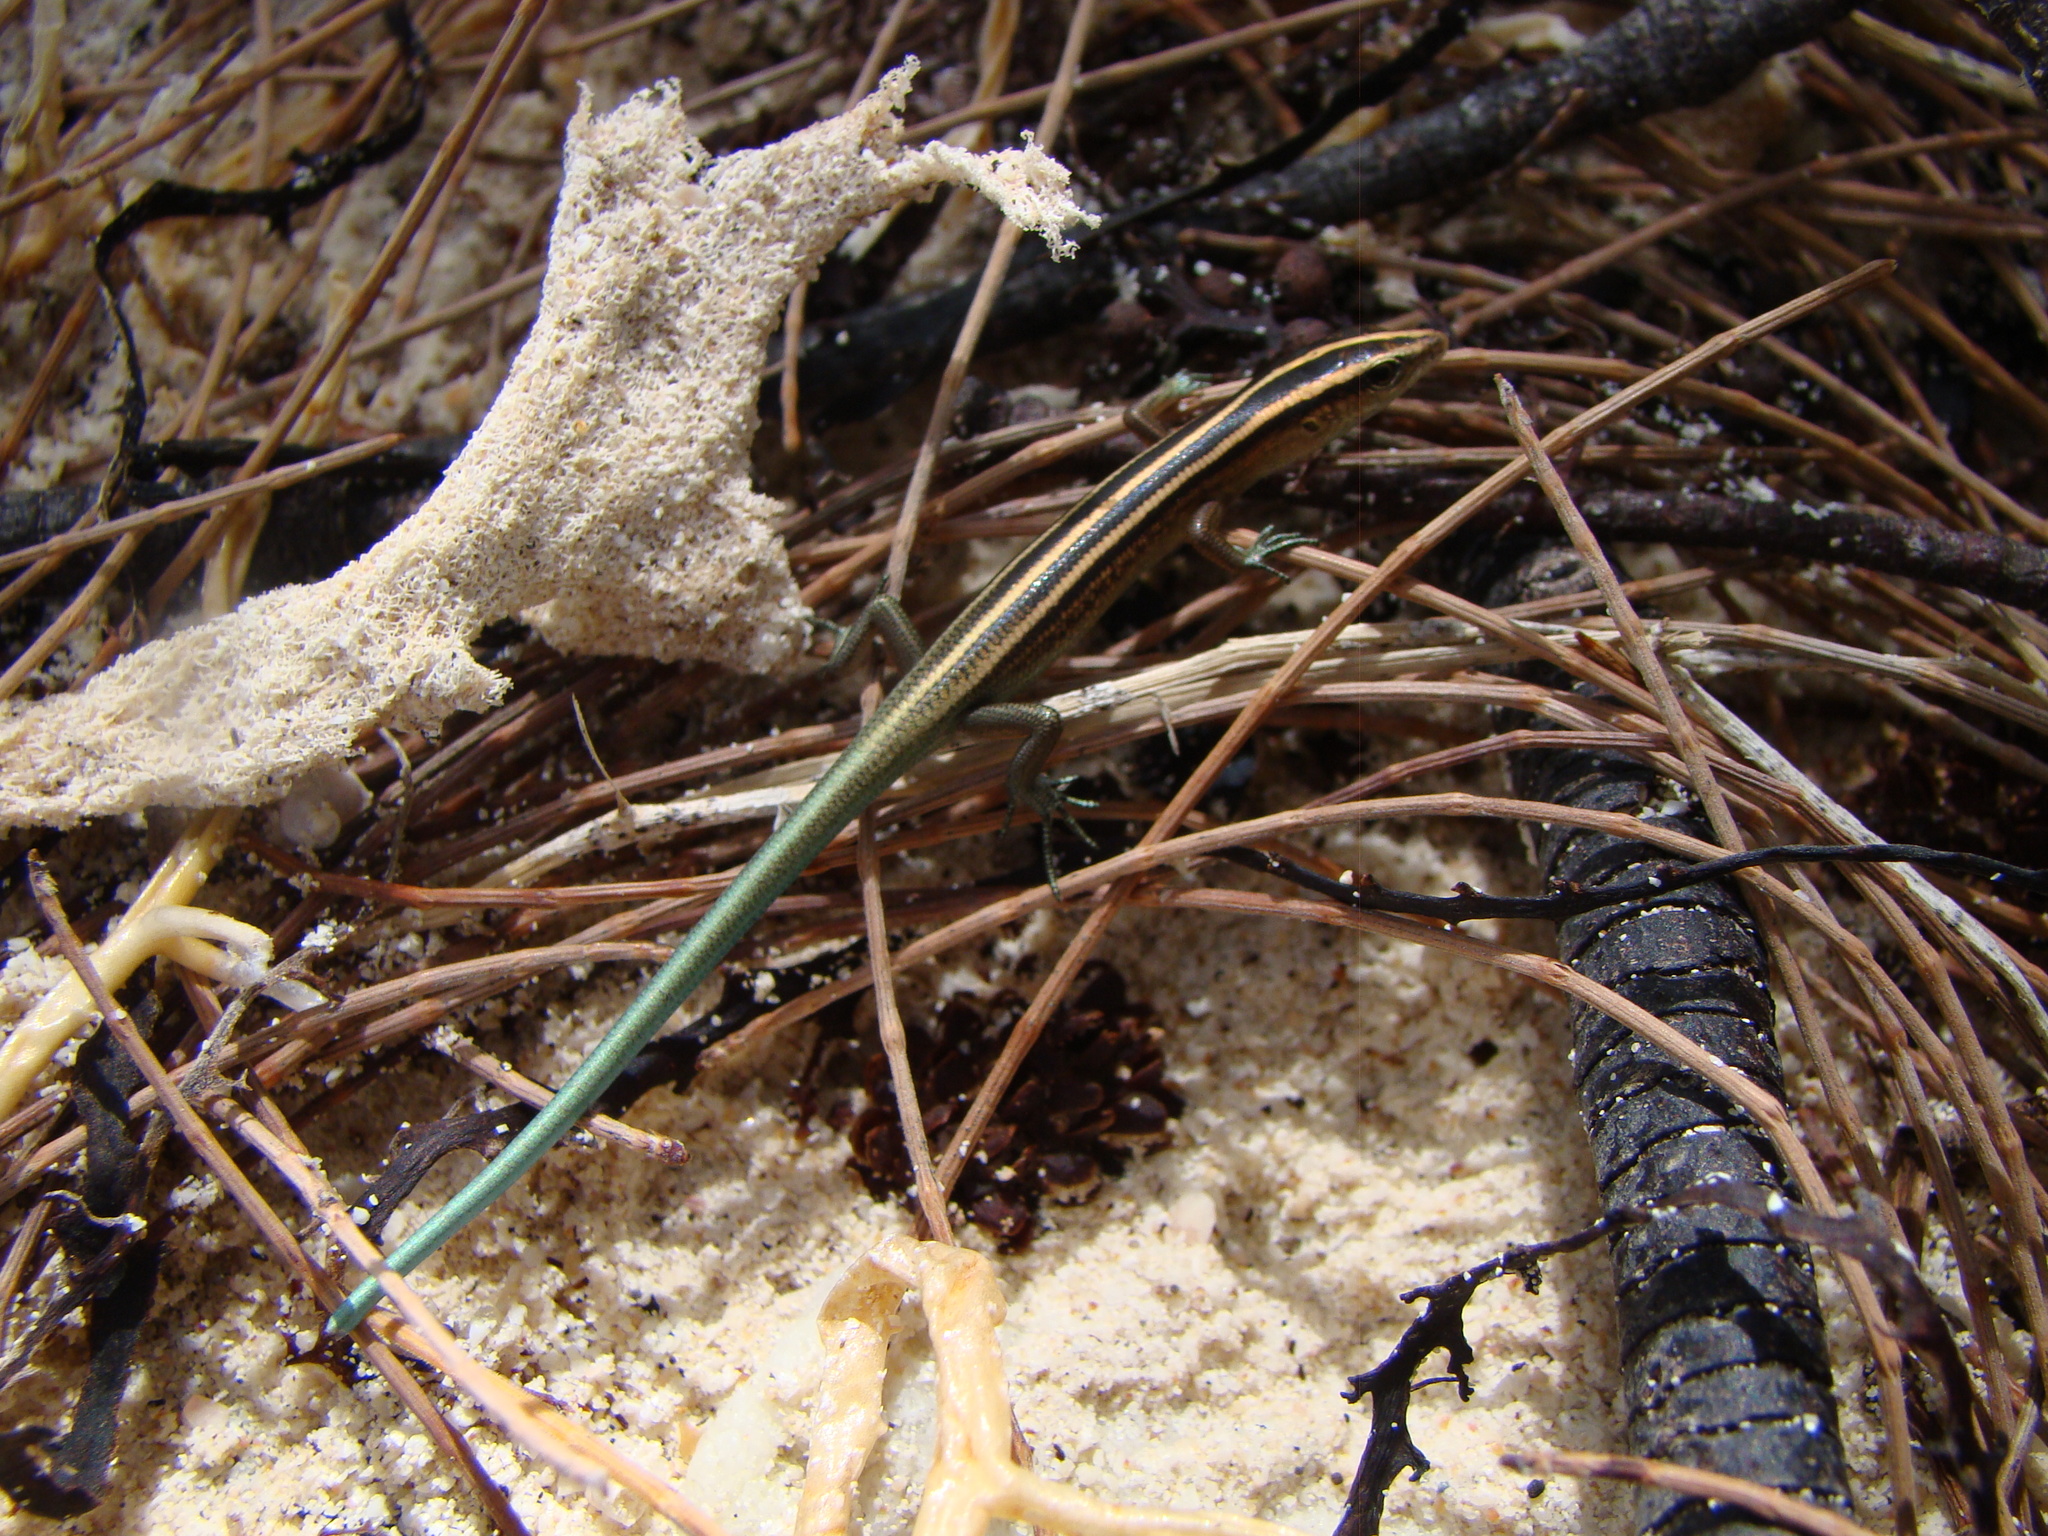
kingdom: Animalia
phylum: Chordata
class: Squamata
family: Scincidae
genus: Emoia
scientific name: Emoia cyanura
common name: Copper-tailed skink
